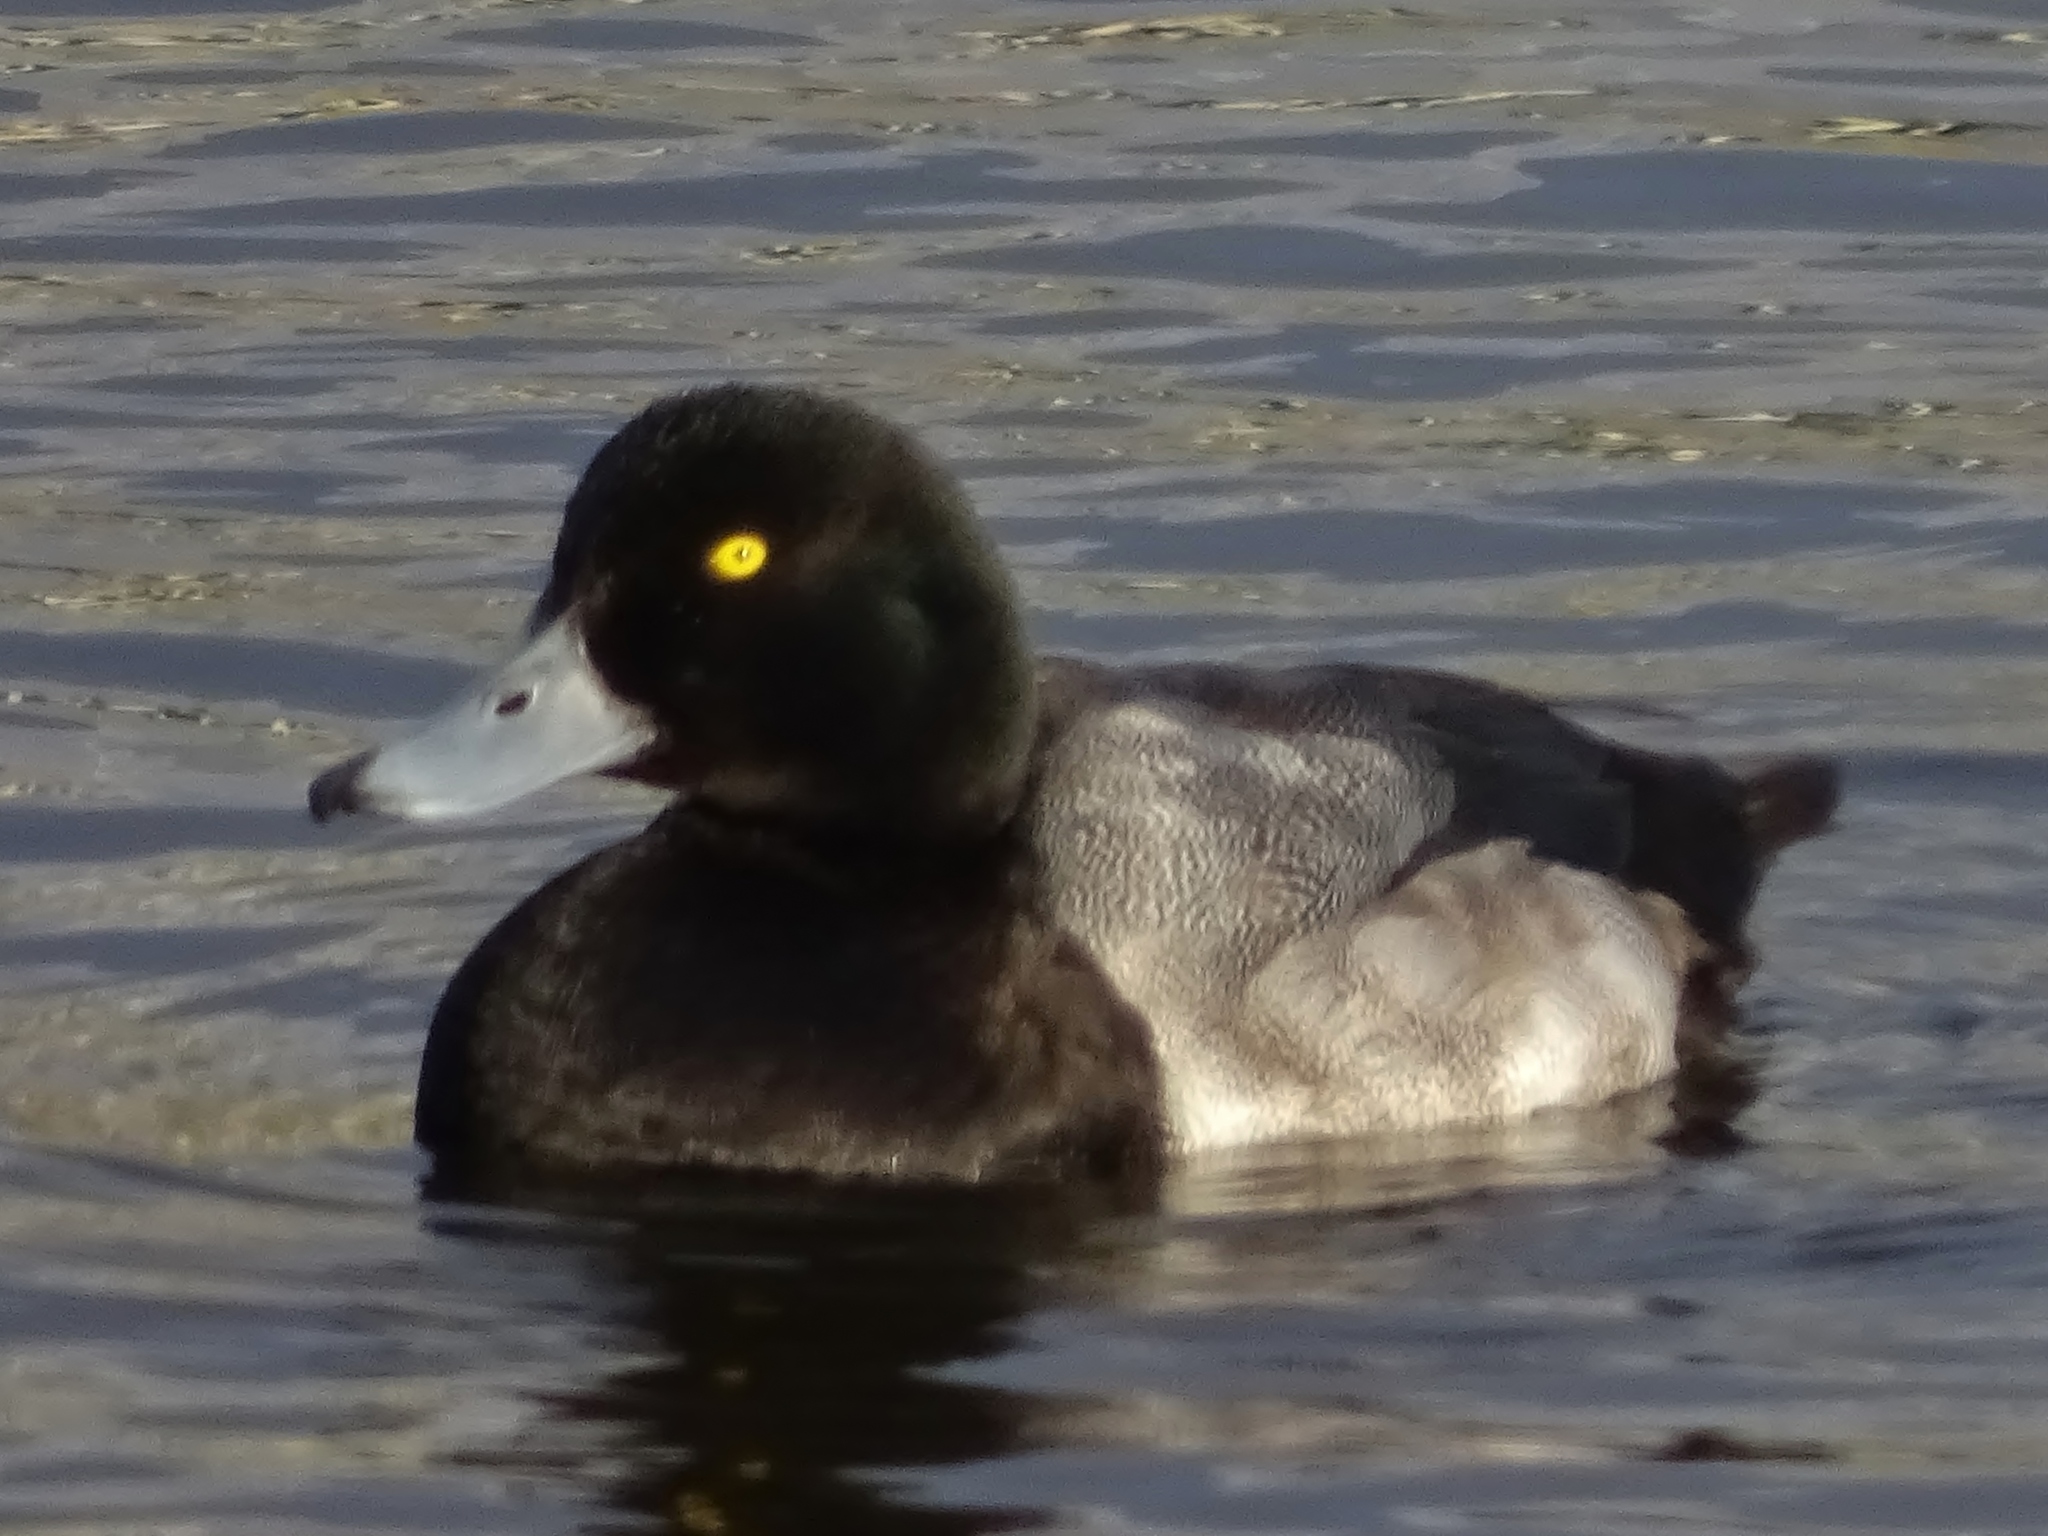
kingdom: Animalia
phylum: Chordata
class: Aves
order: Anseriformes
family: Anatidae
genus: Aythya
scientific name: Aythya marila
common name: Greater scaup
